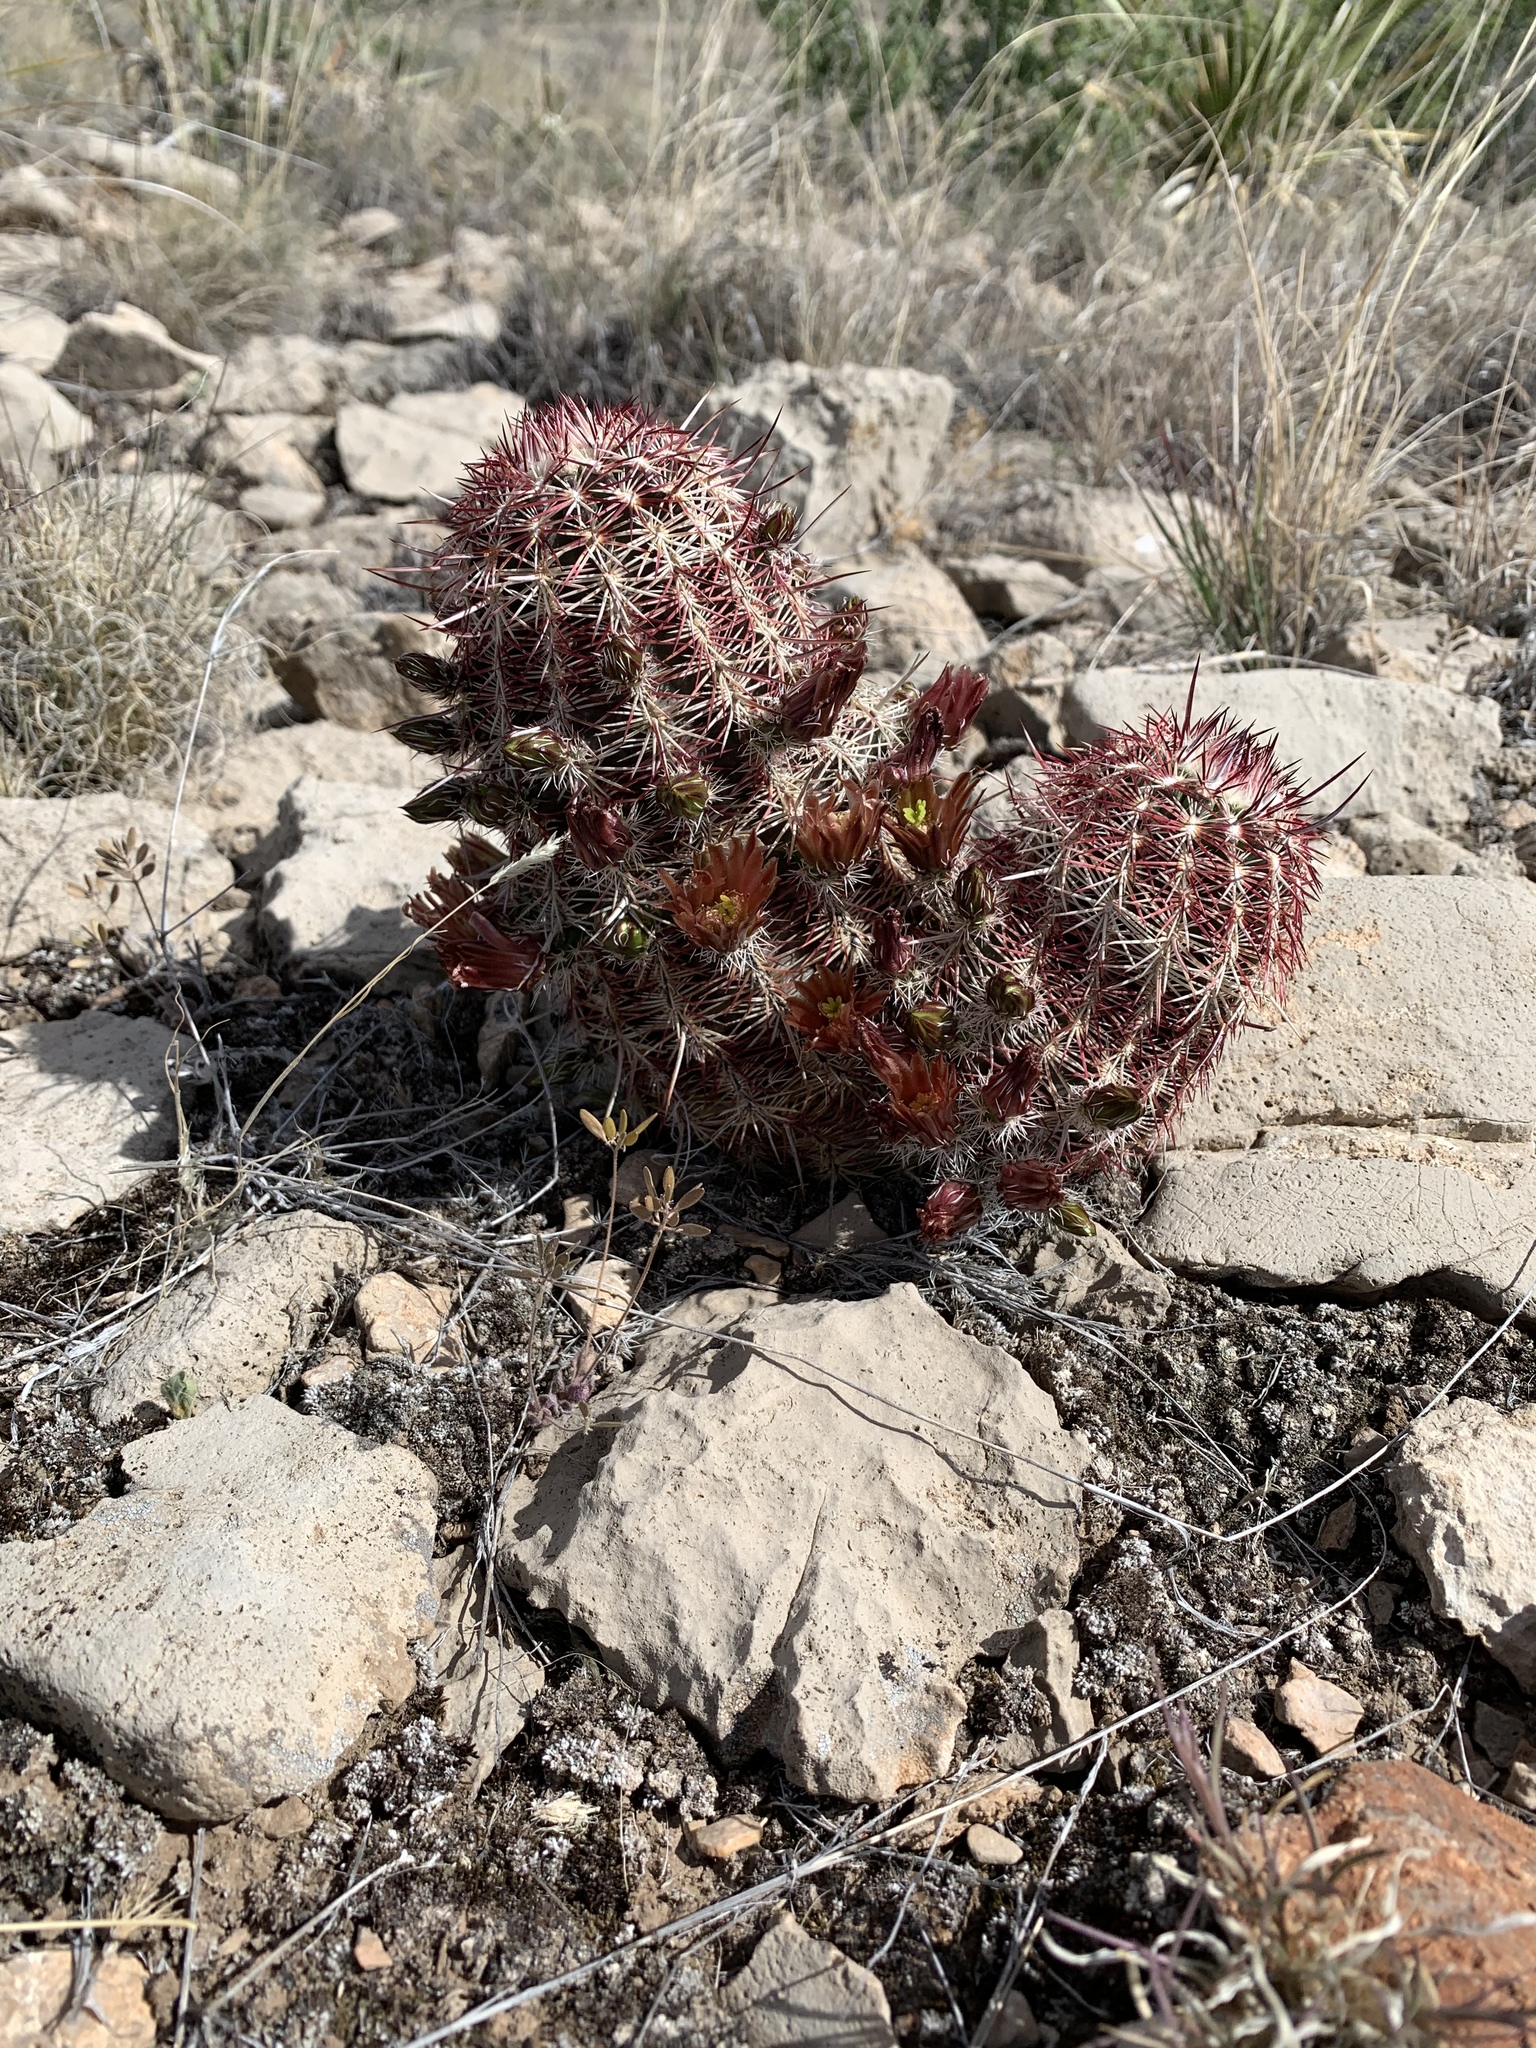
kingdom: Plantae
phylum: Tracheophyta
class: Magnoliopsida
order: Caryophyllales
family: Cactaceae
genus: Echinocereus
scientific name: Echinocereus viridiflorus
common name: Nylon hedgehog cactus
